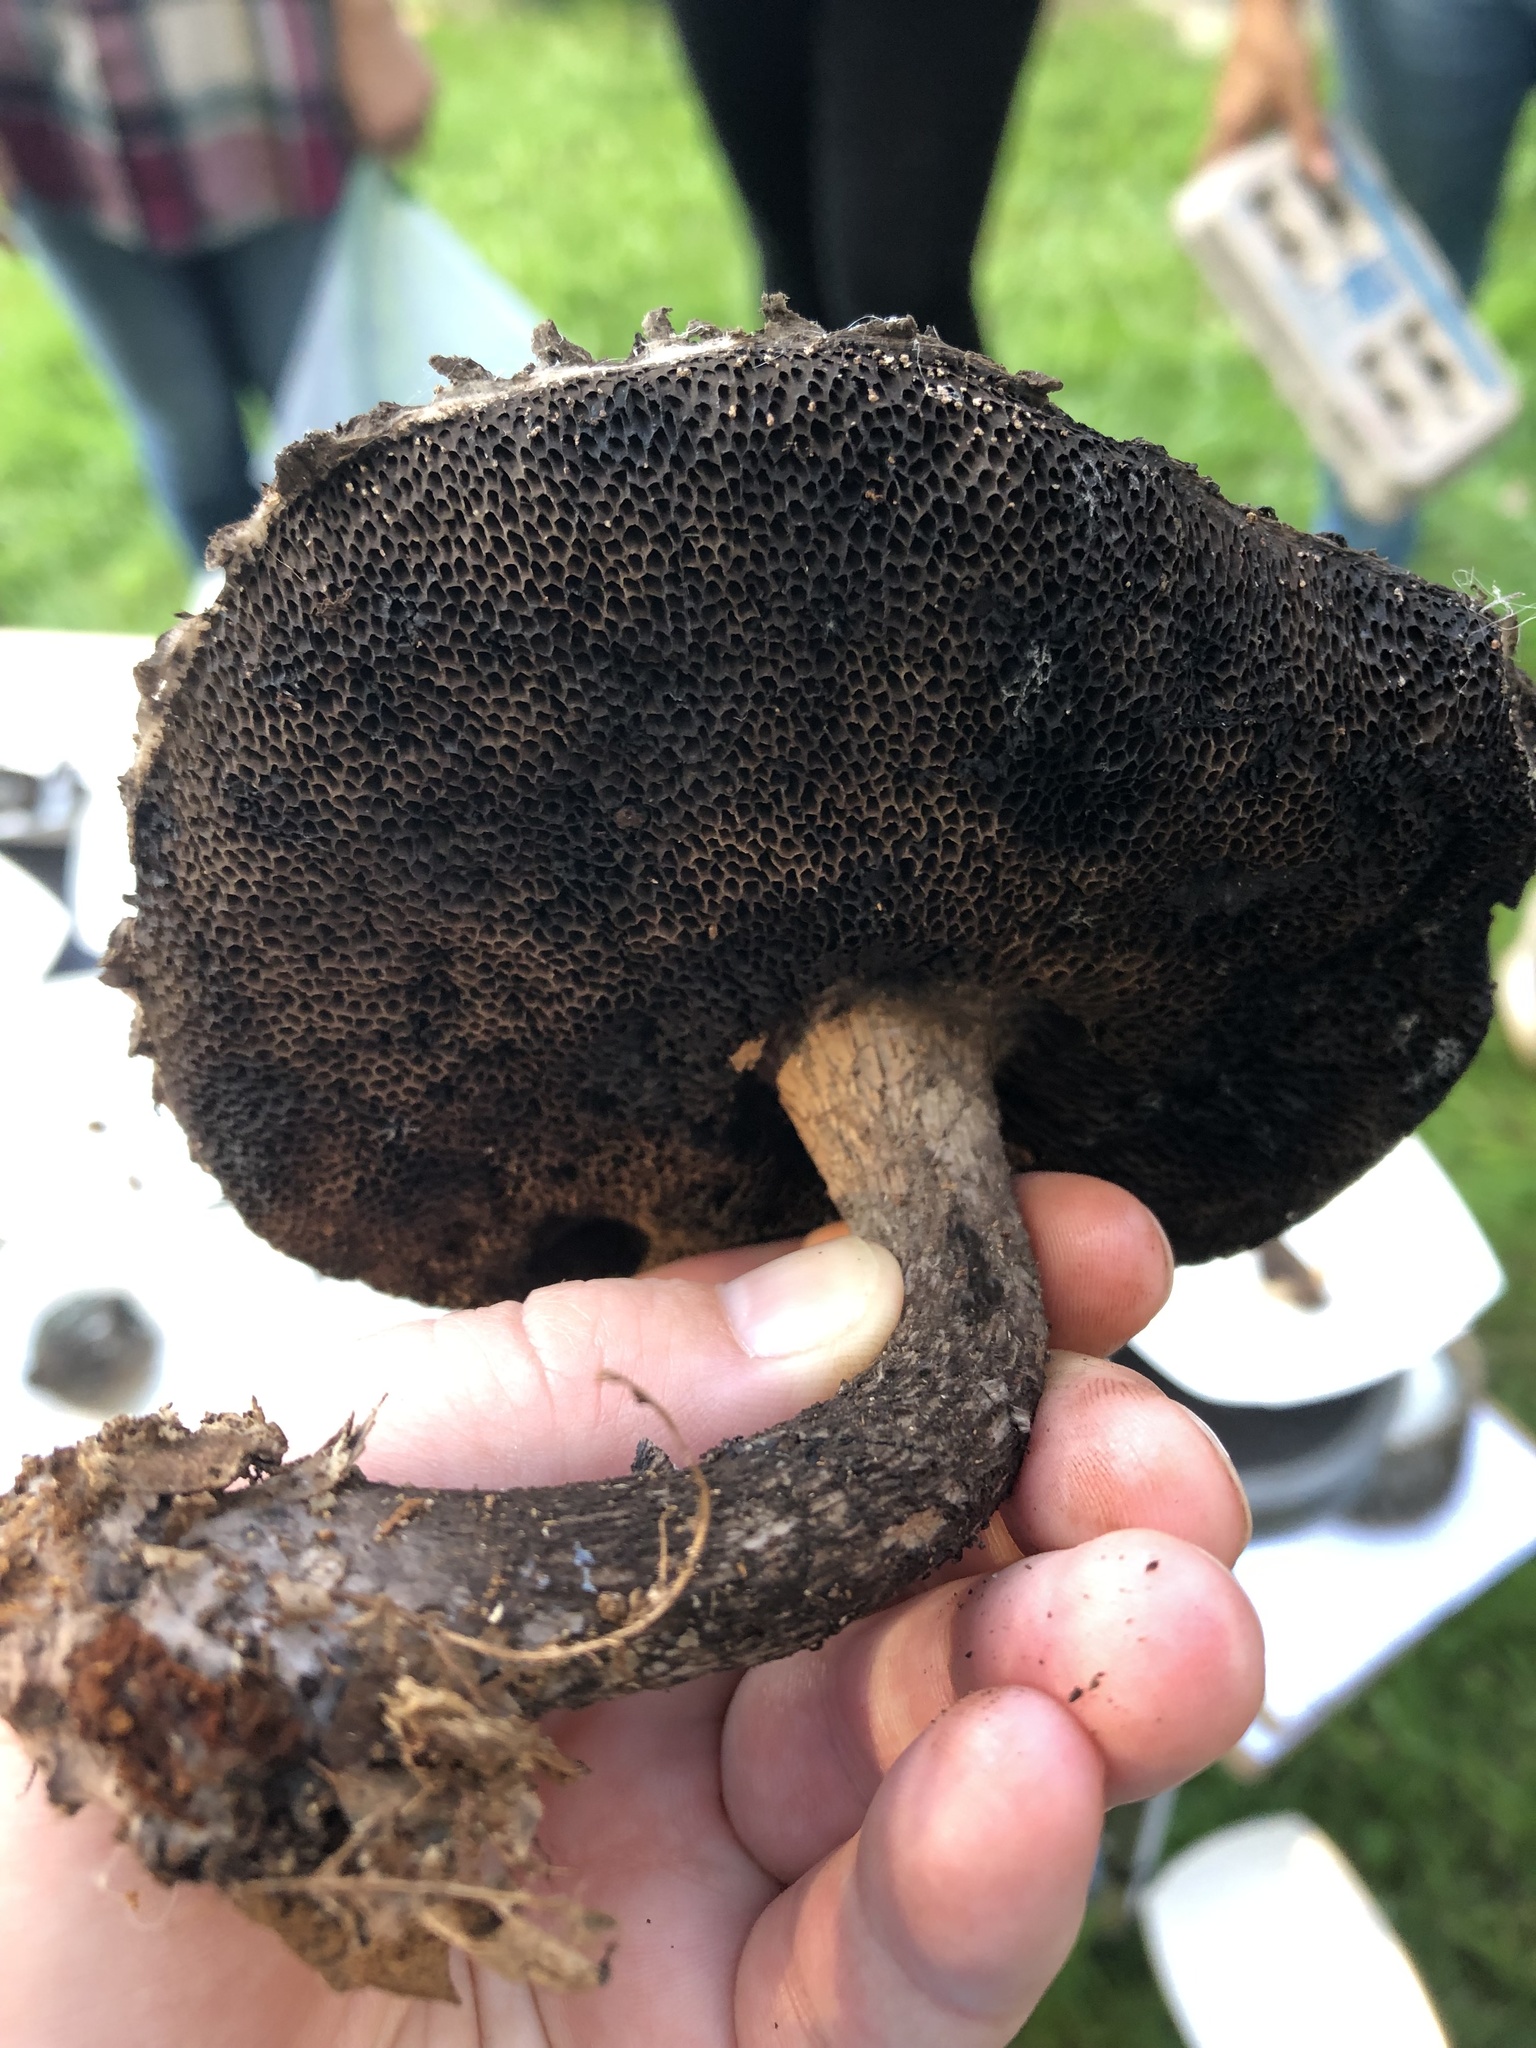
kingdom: Fungi
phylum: Basidiomycota
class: Agaricomycetes
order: Boletales
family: Boletaceae
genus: Strobilomyces
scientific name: Strobilomyces strobilaceus
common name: Old man of the woods
